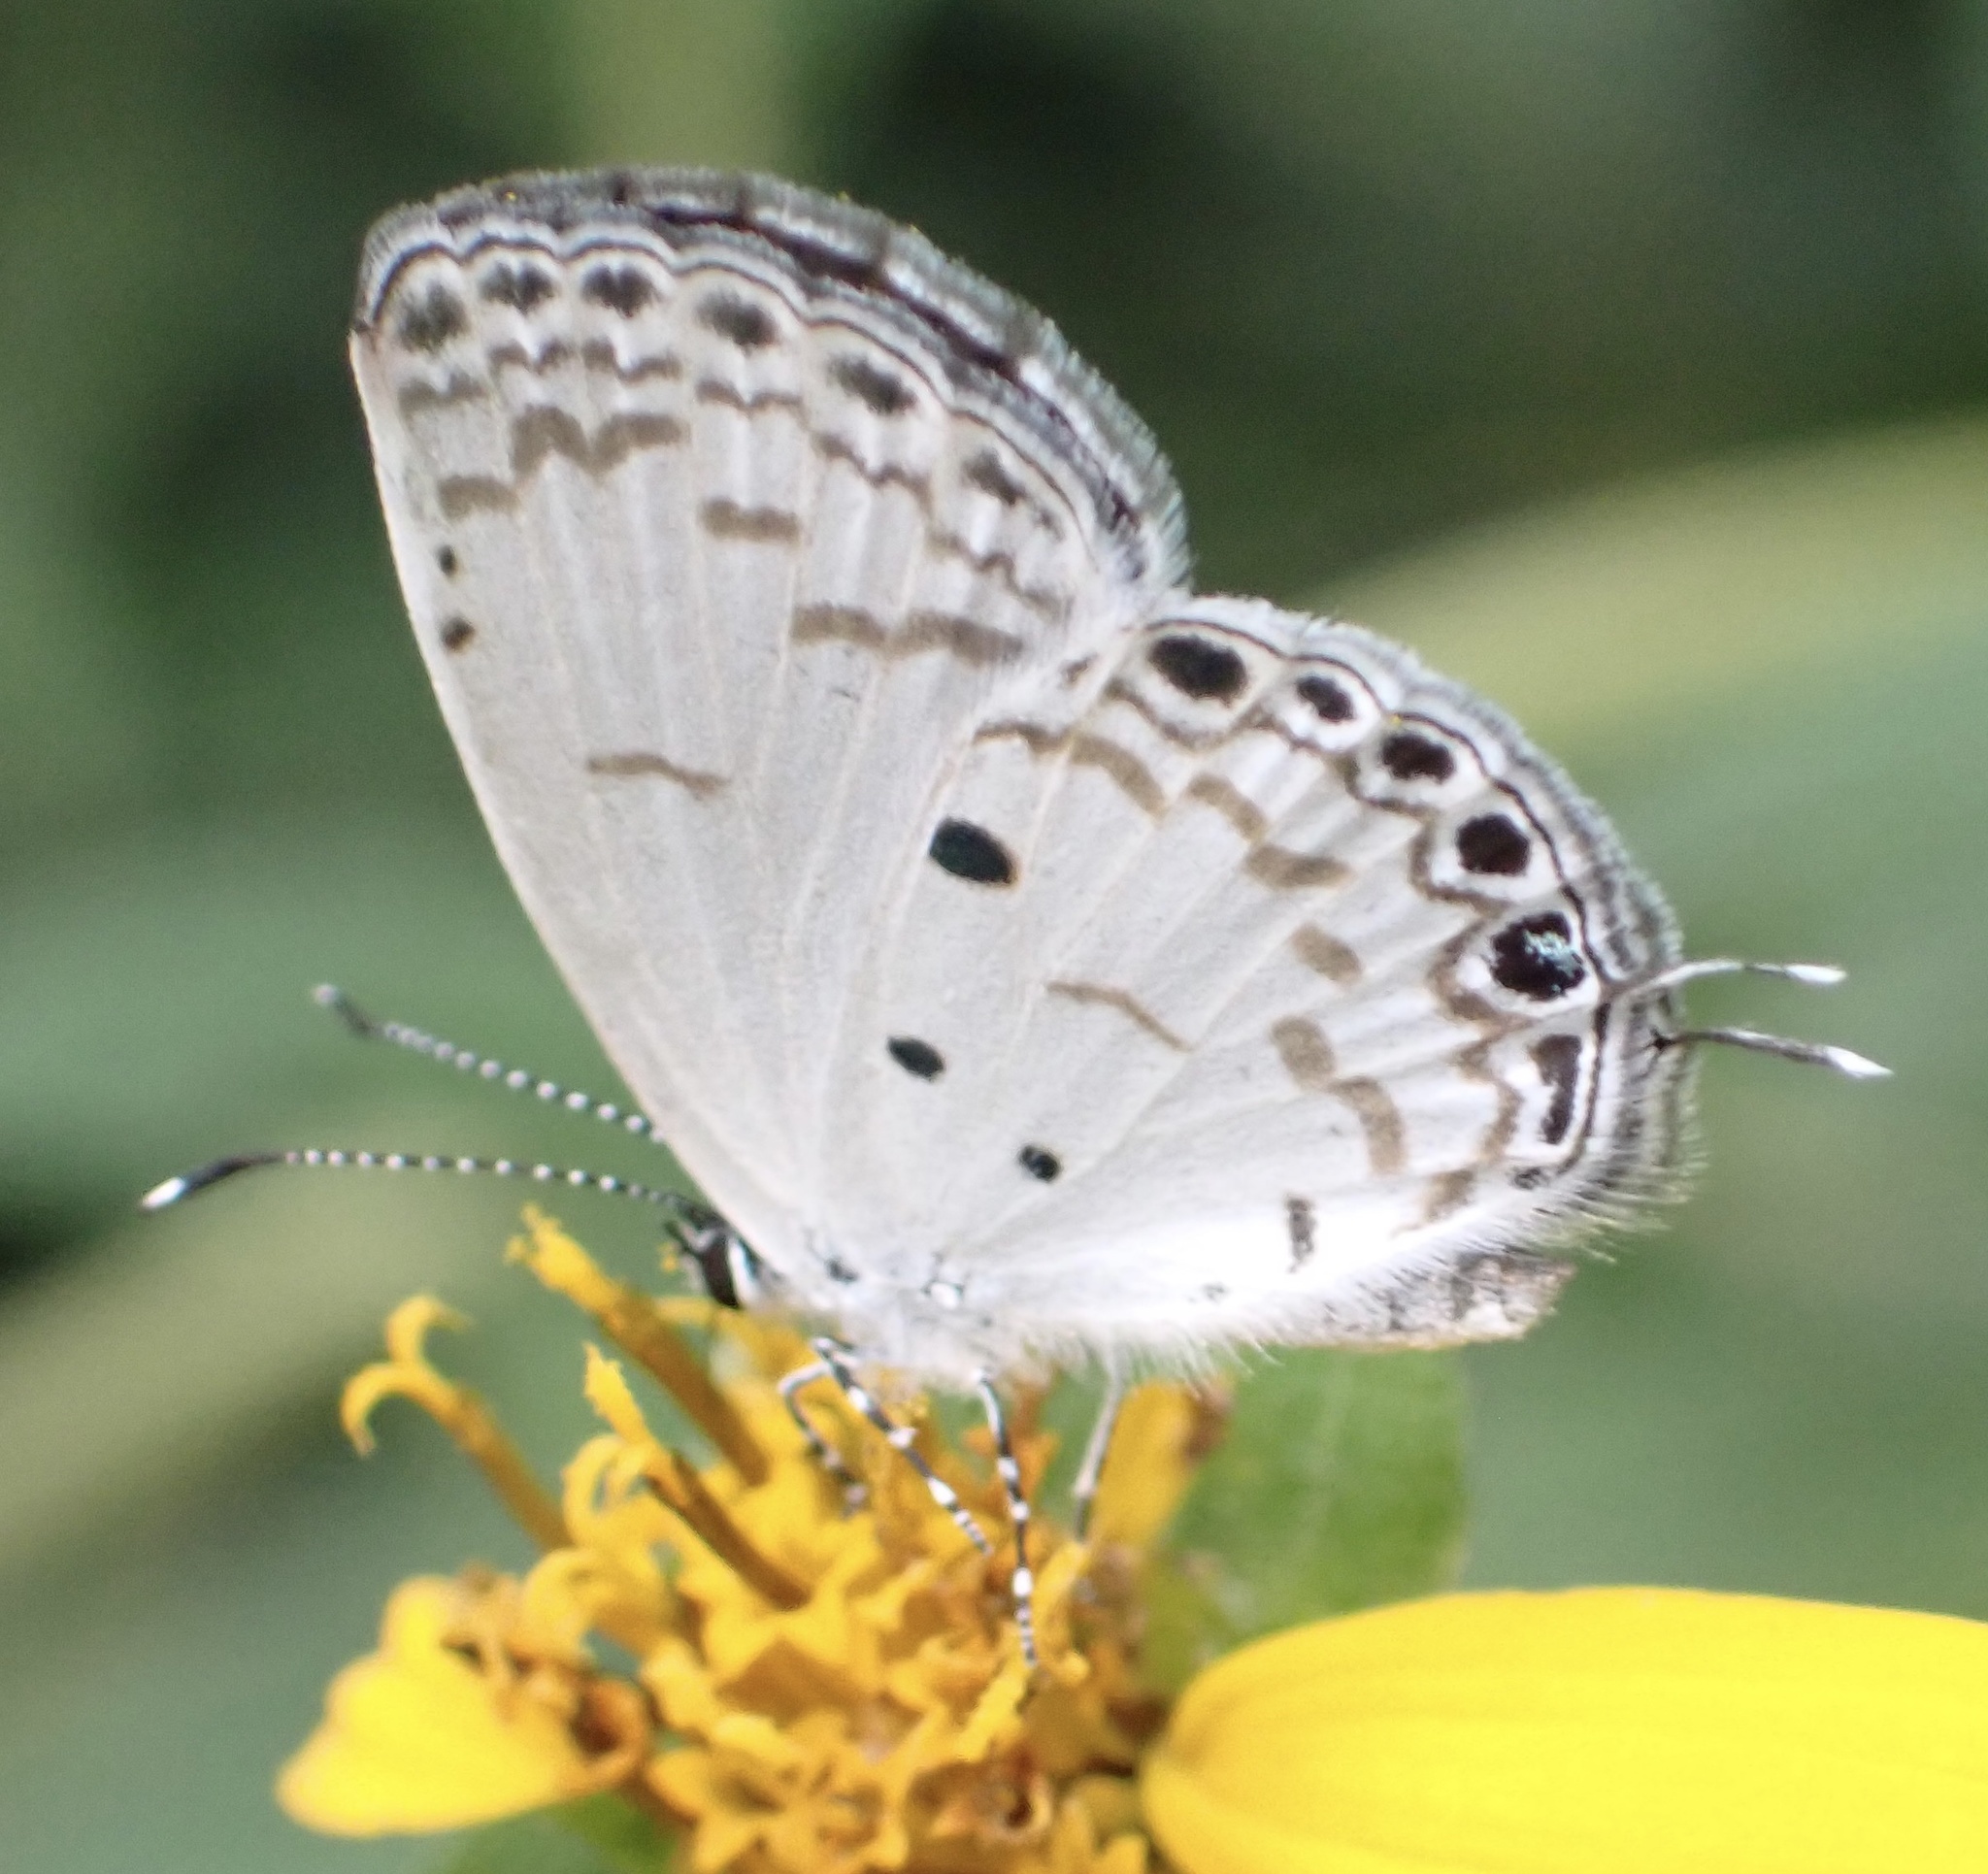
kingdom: Animalia
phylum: Arthropoda
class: Insecta
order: Lepidoptera
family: Lycaenidae
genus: Thermoniphas
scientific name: Thermoniphas micylus
